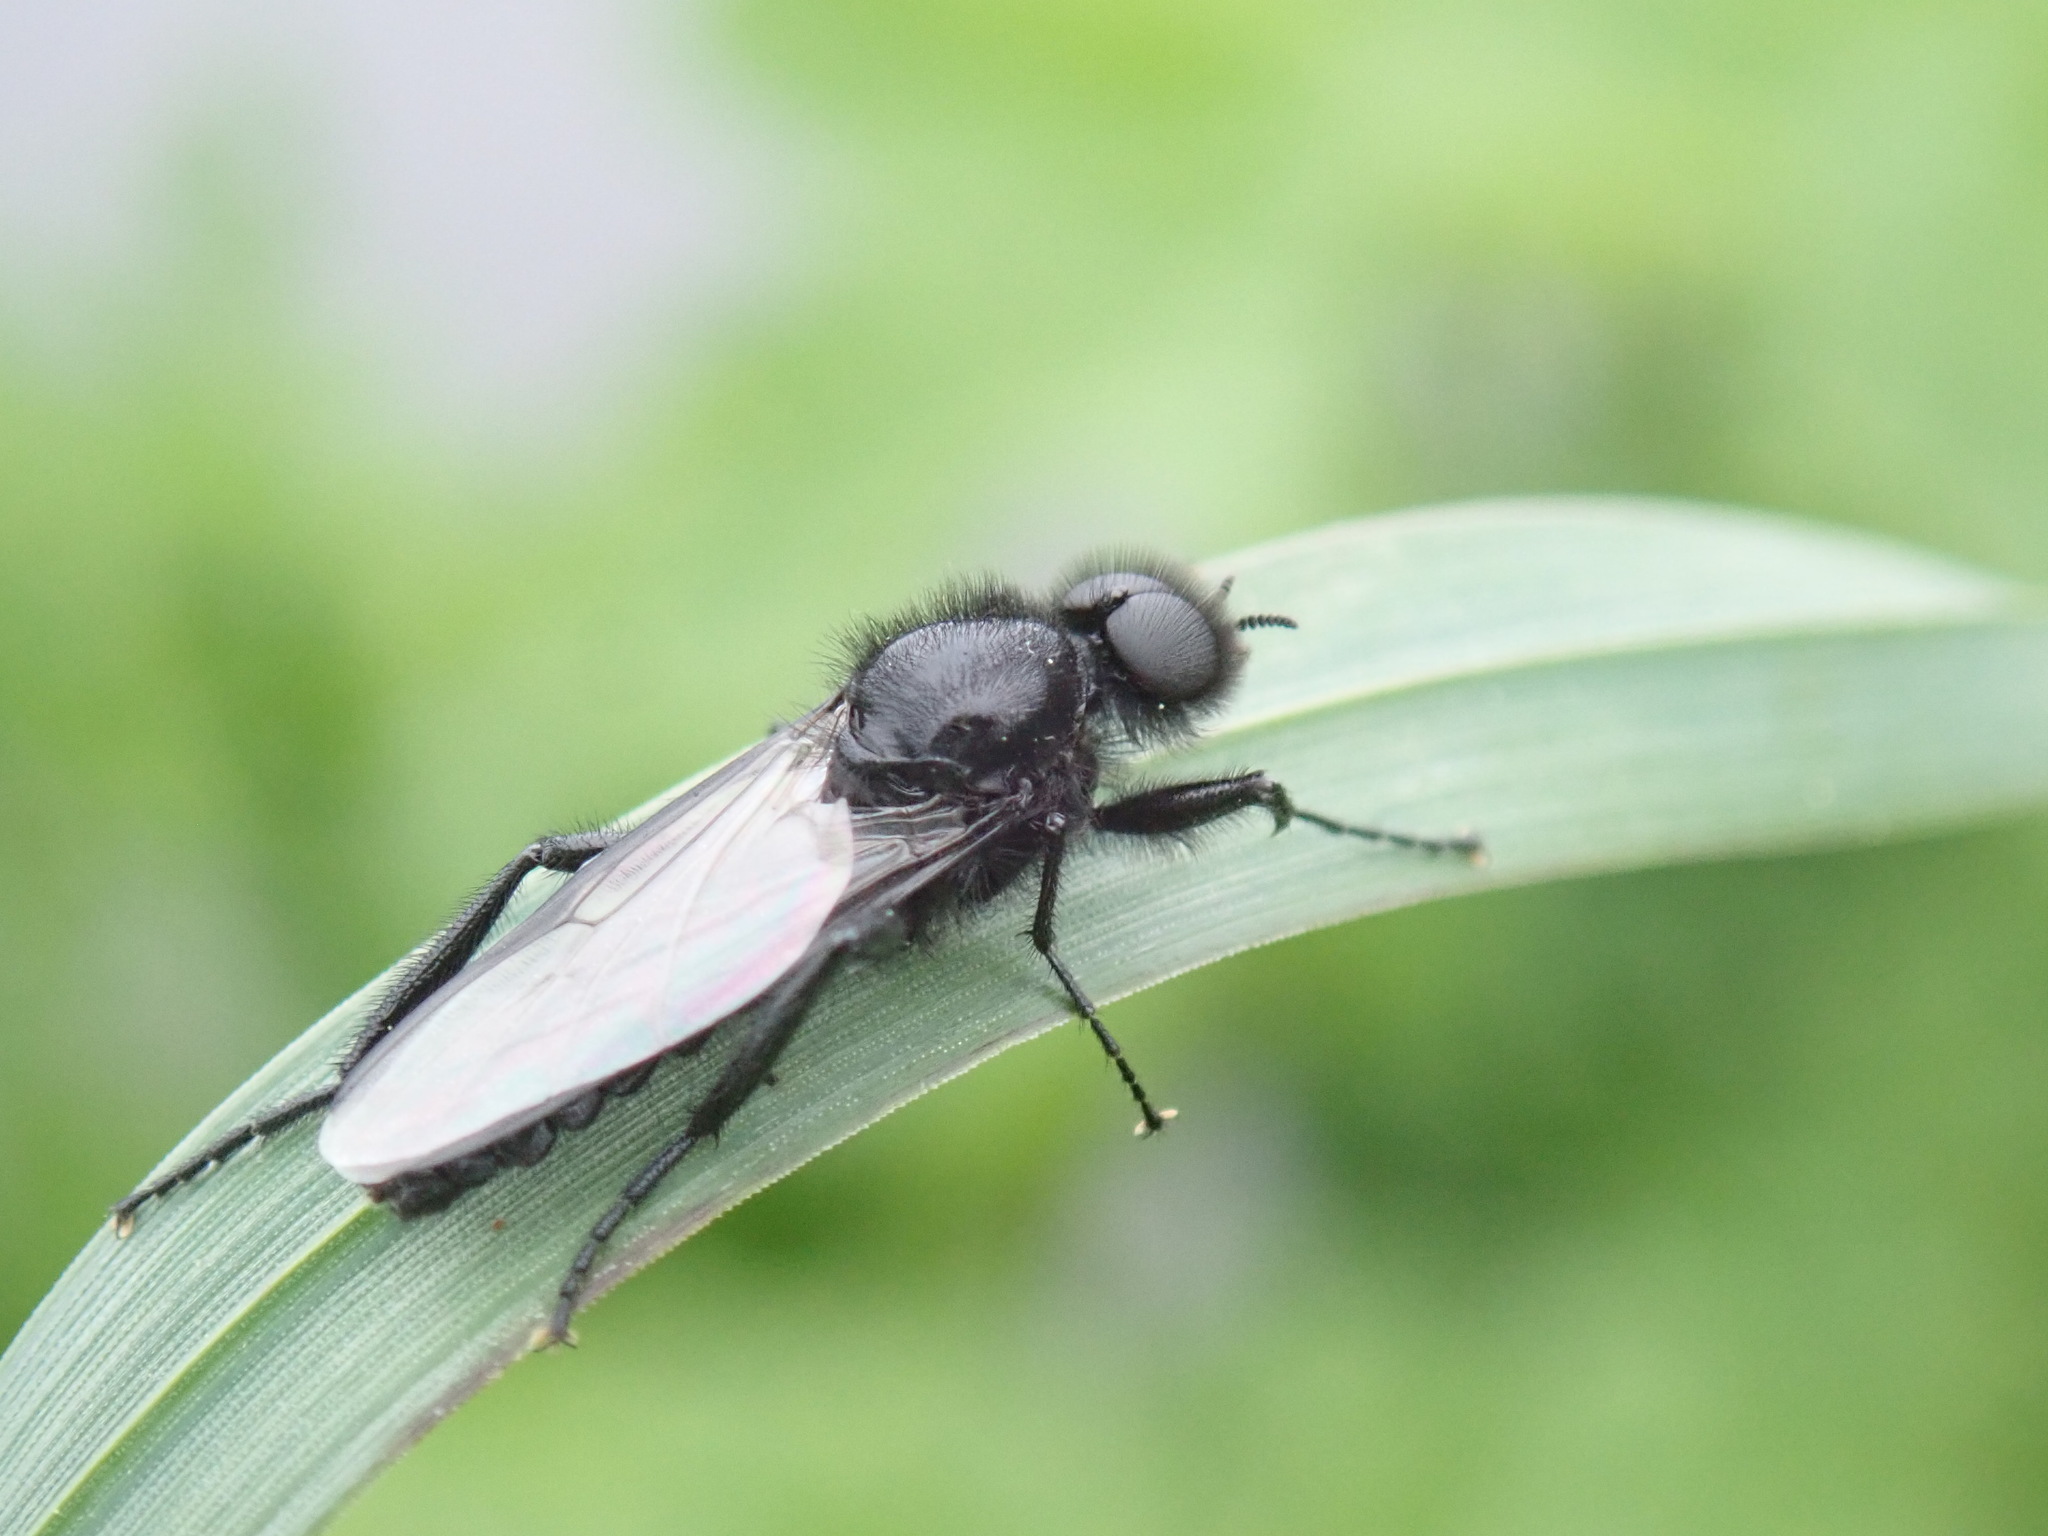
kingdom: Animalia
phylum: Arthropoda
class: Insecta
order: Diptera
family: Bibionidae
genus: Bibio
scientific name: Bibio marci
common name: St marks fly
